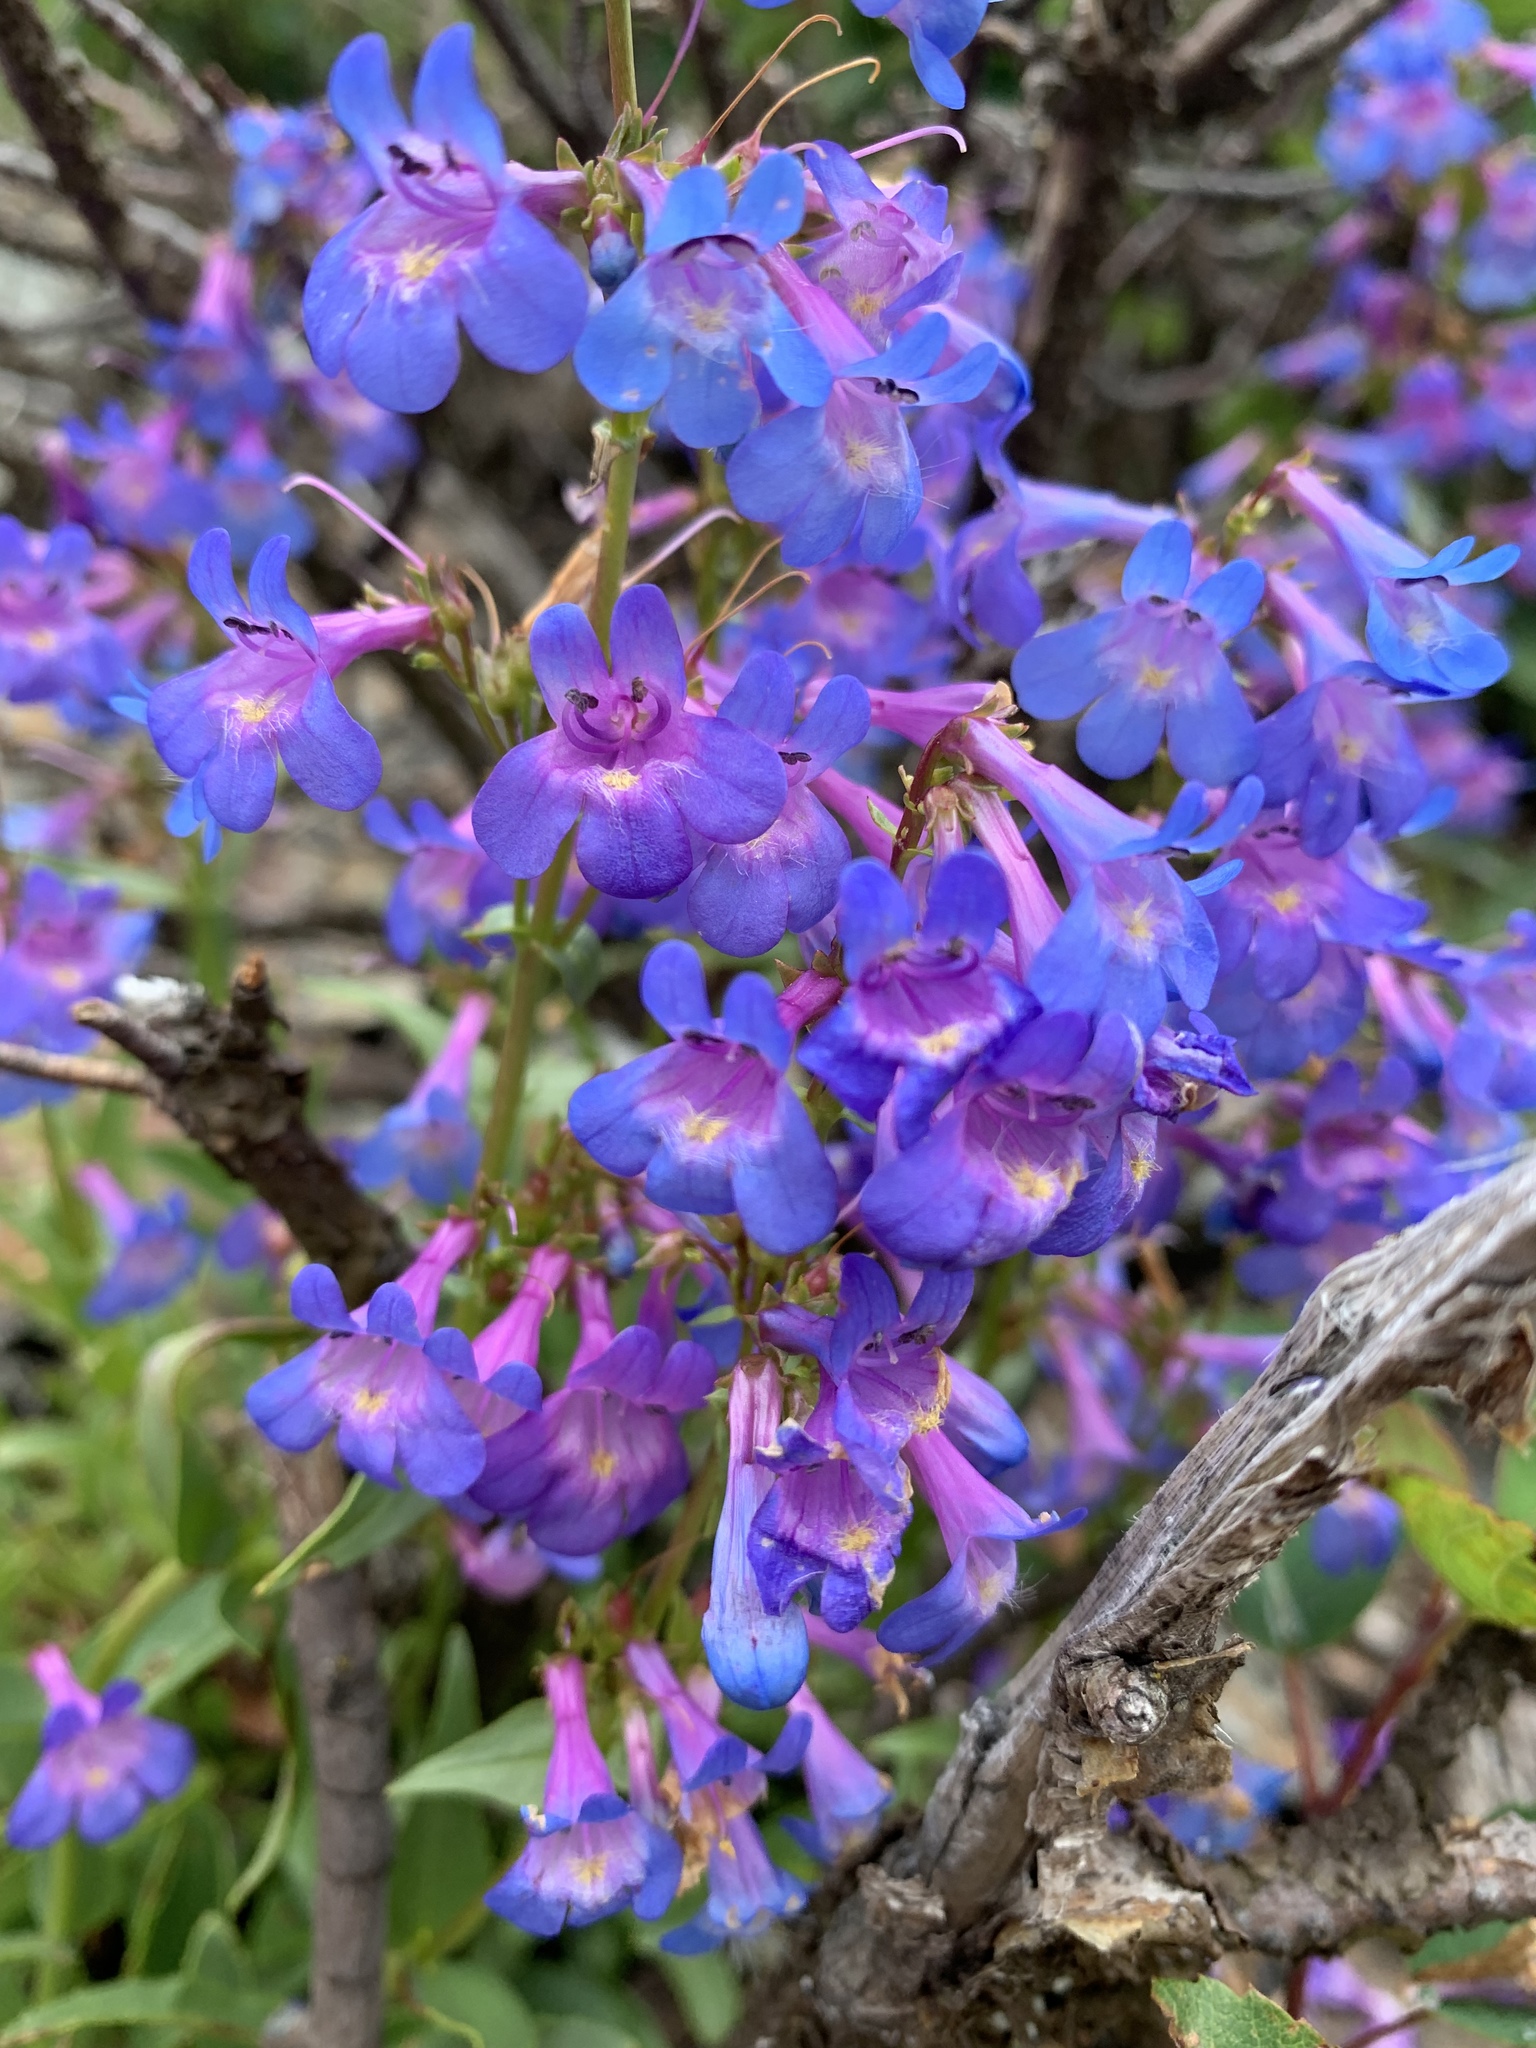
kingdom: Plantae
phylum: Tracheophyta
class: Magnoliopsida
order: Lamiales
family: Plantaginaceae
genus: Penstemon
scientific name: Penstemon nitidus
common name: Shining penstemon
